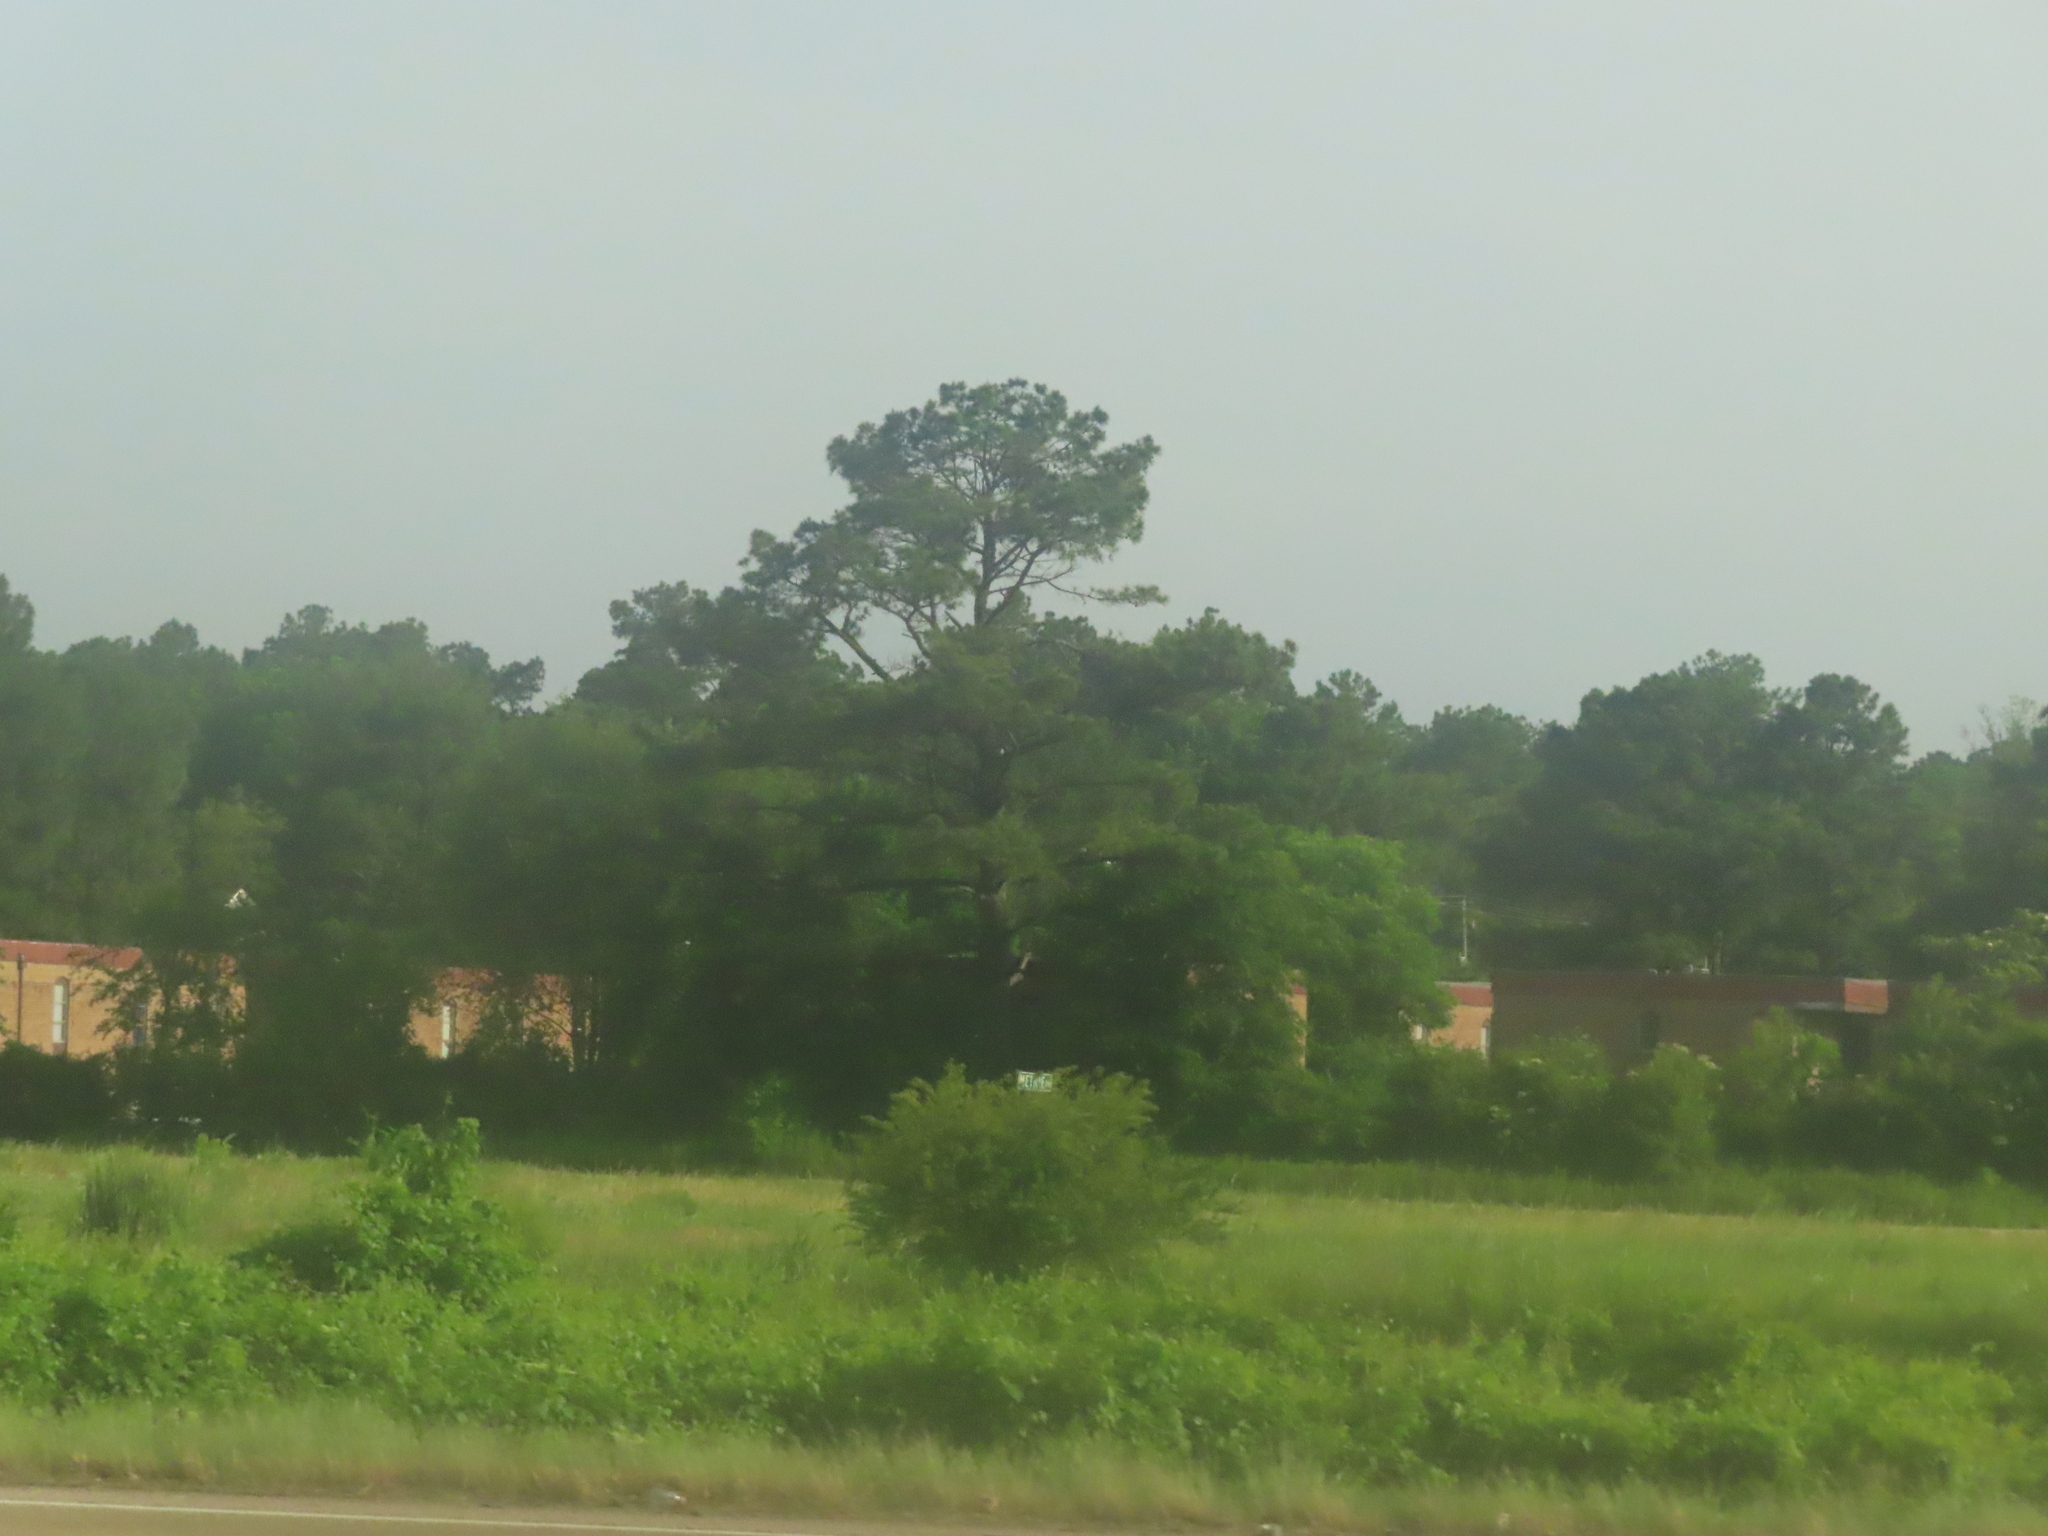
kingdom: Plantae
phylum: Tracheophyta
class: Pinopsida
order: Pinales
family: Pinaceae
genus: Pinus
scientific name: Pinus echinata
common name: Shortleaf pine
